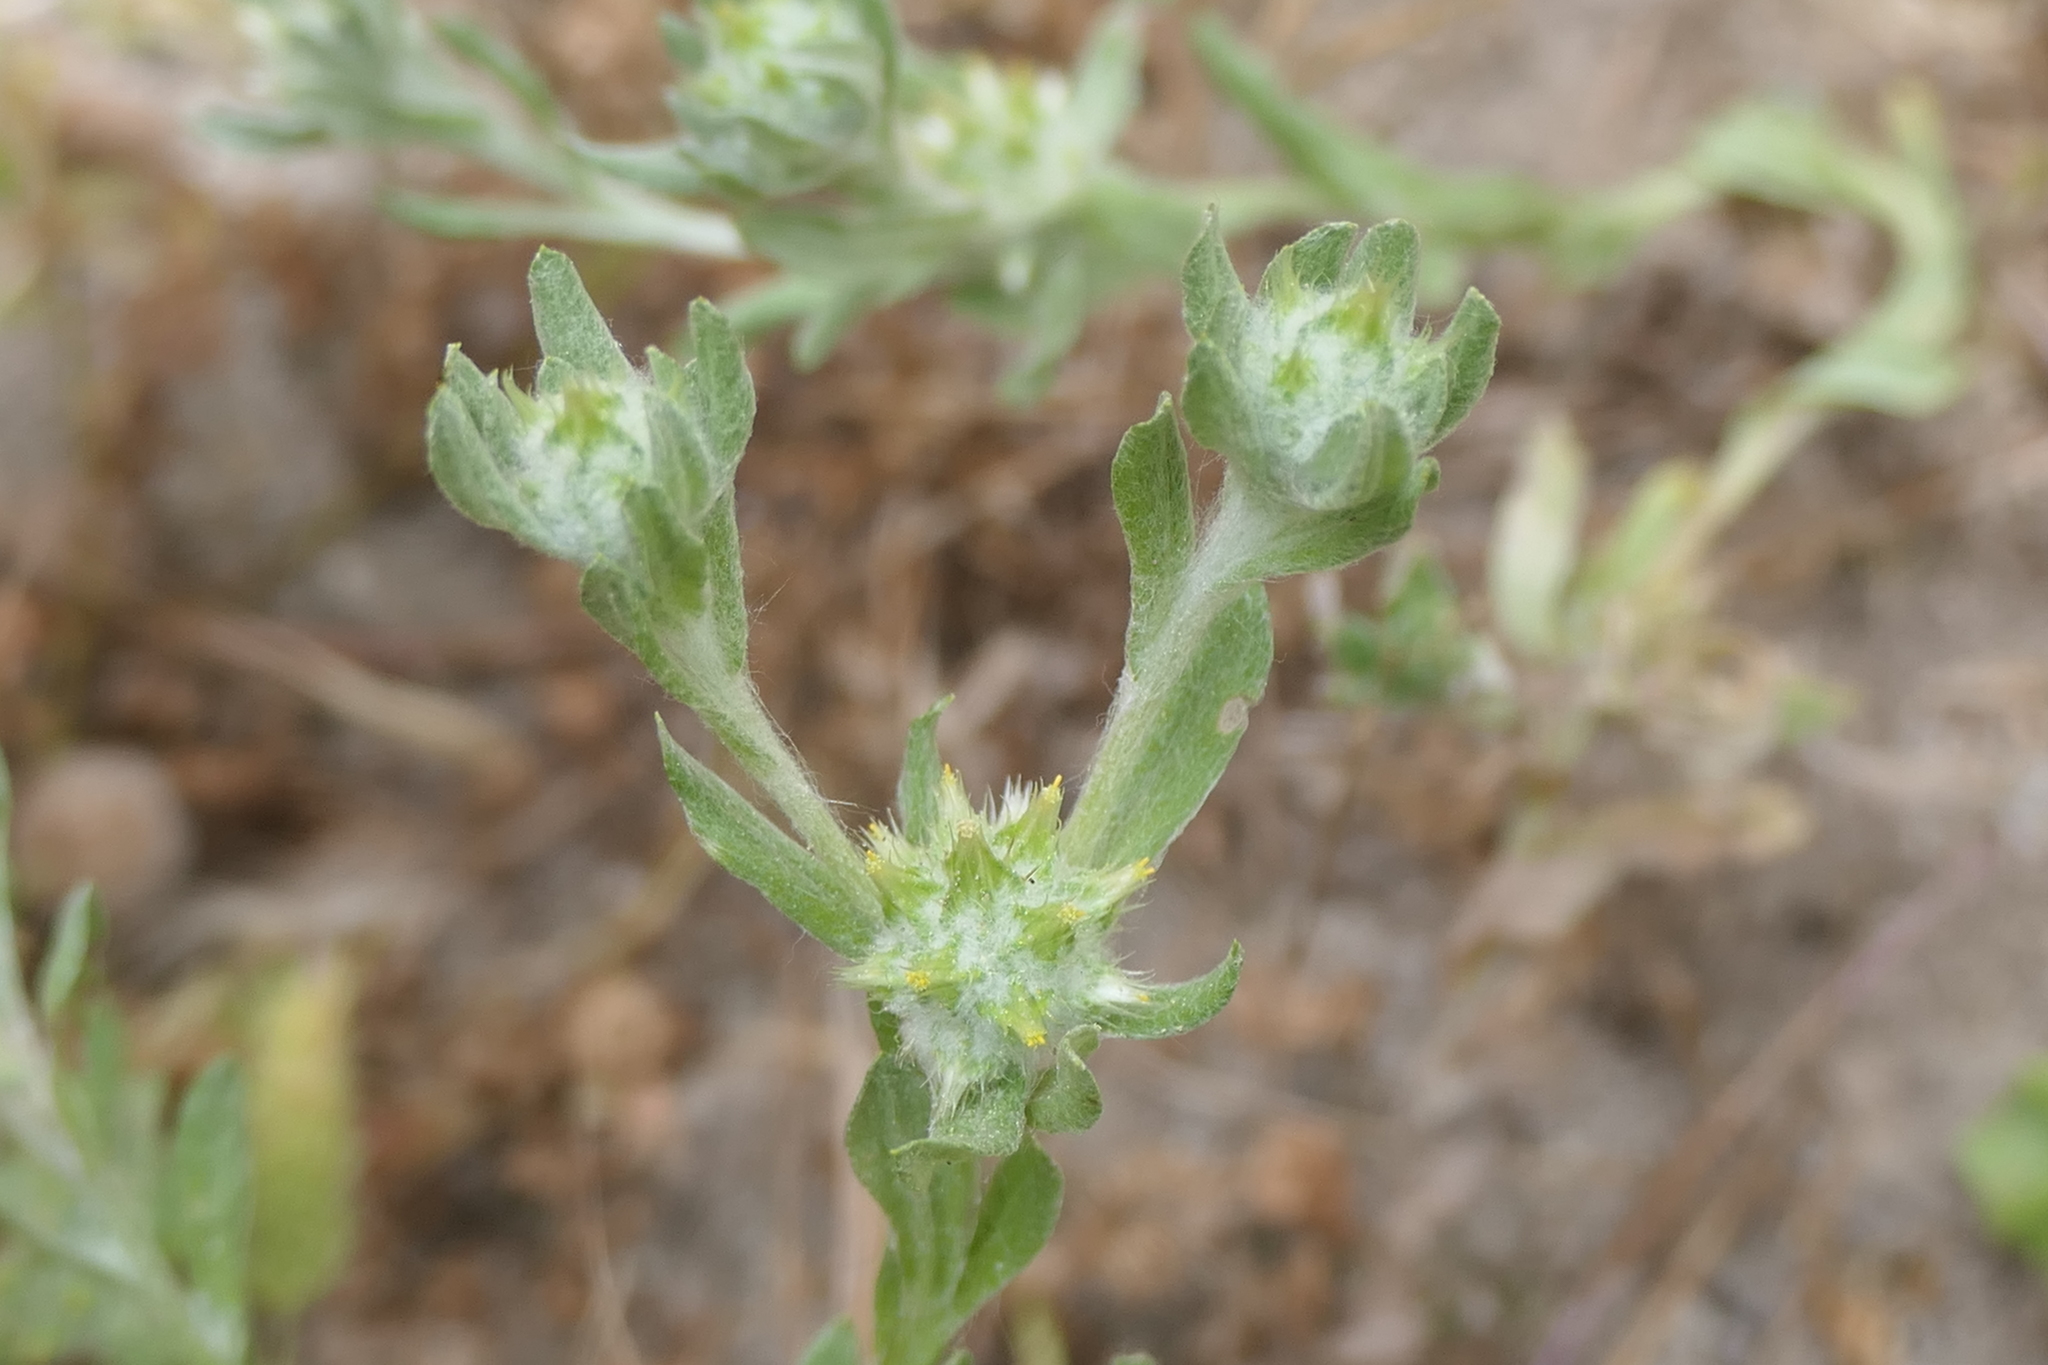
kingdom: Plantae
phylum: Tracheophyta
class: Magnoliopsida
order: Asterales
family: Asteraceae
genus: Filago
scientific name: Filago pyramidata
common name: Broad-leaved cudweed
